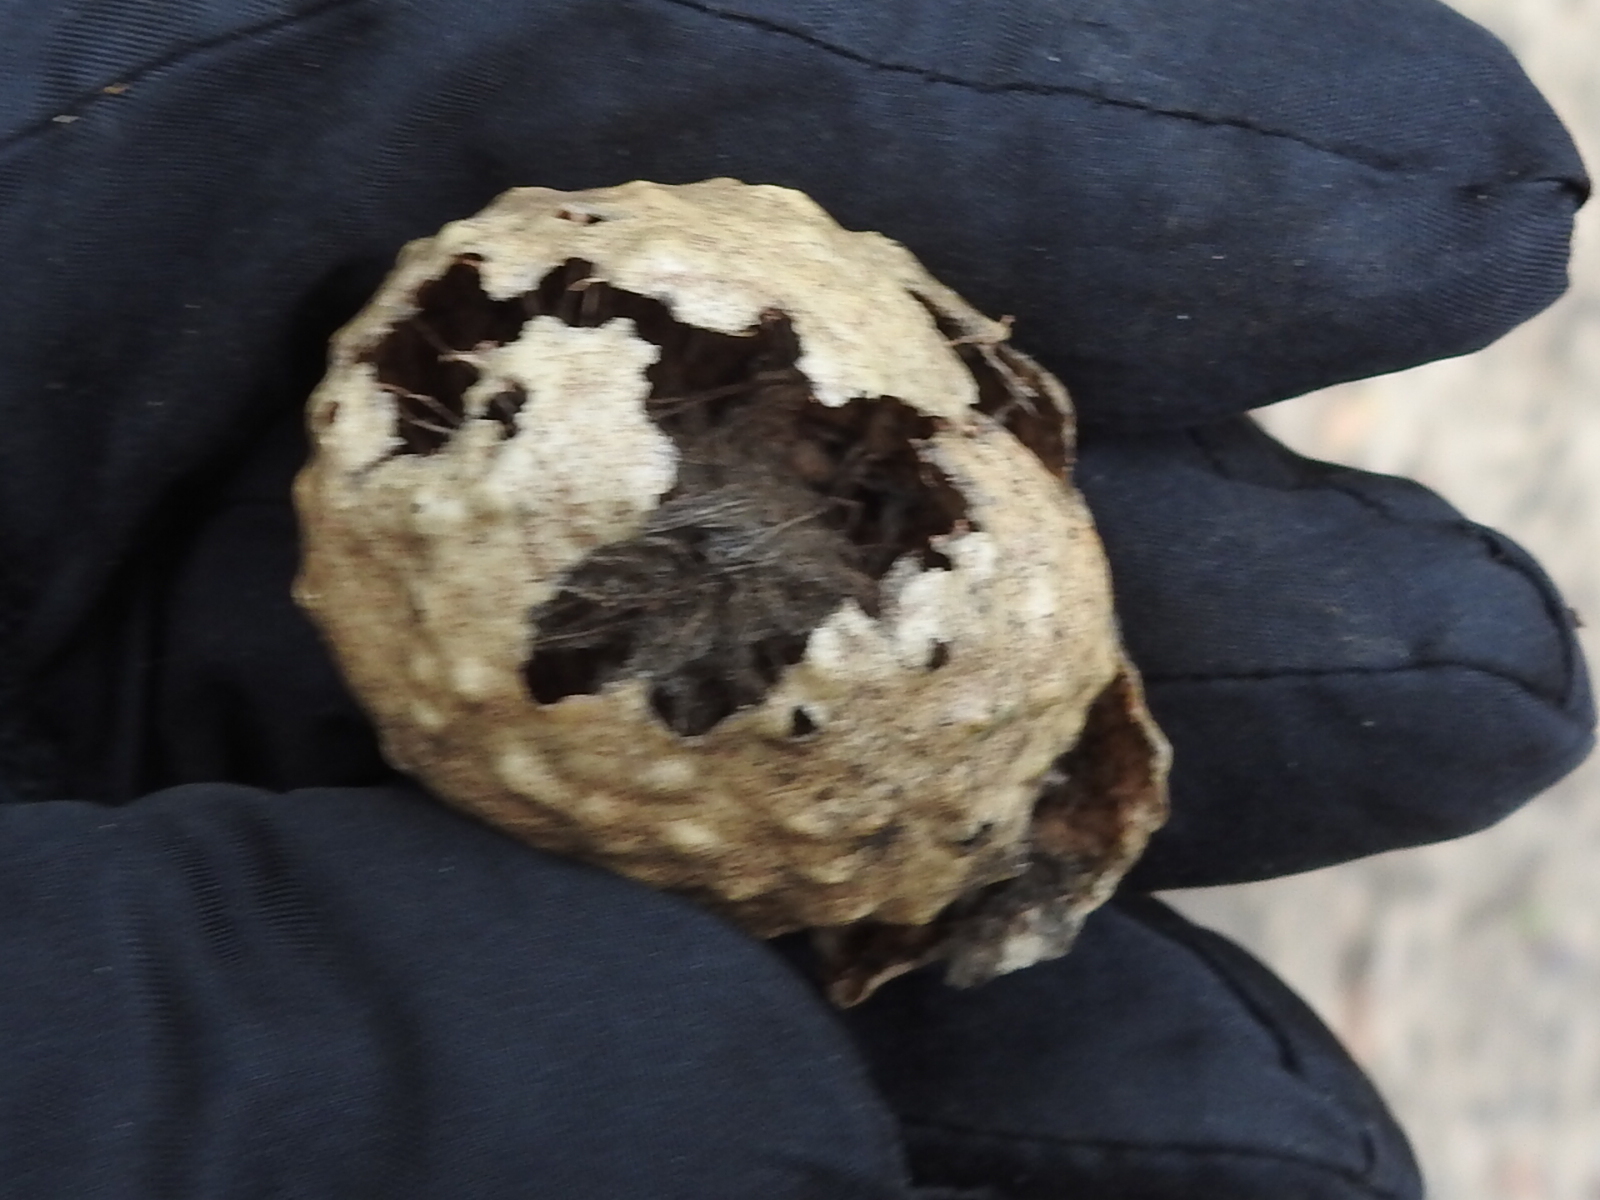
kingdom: Animalia
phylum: Arthropoda
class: Insecta
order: Hymenoptera
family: Cynipidae
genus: Amphibolips
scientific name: Amphibolips
